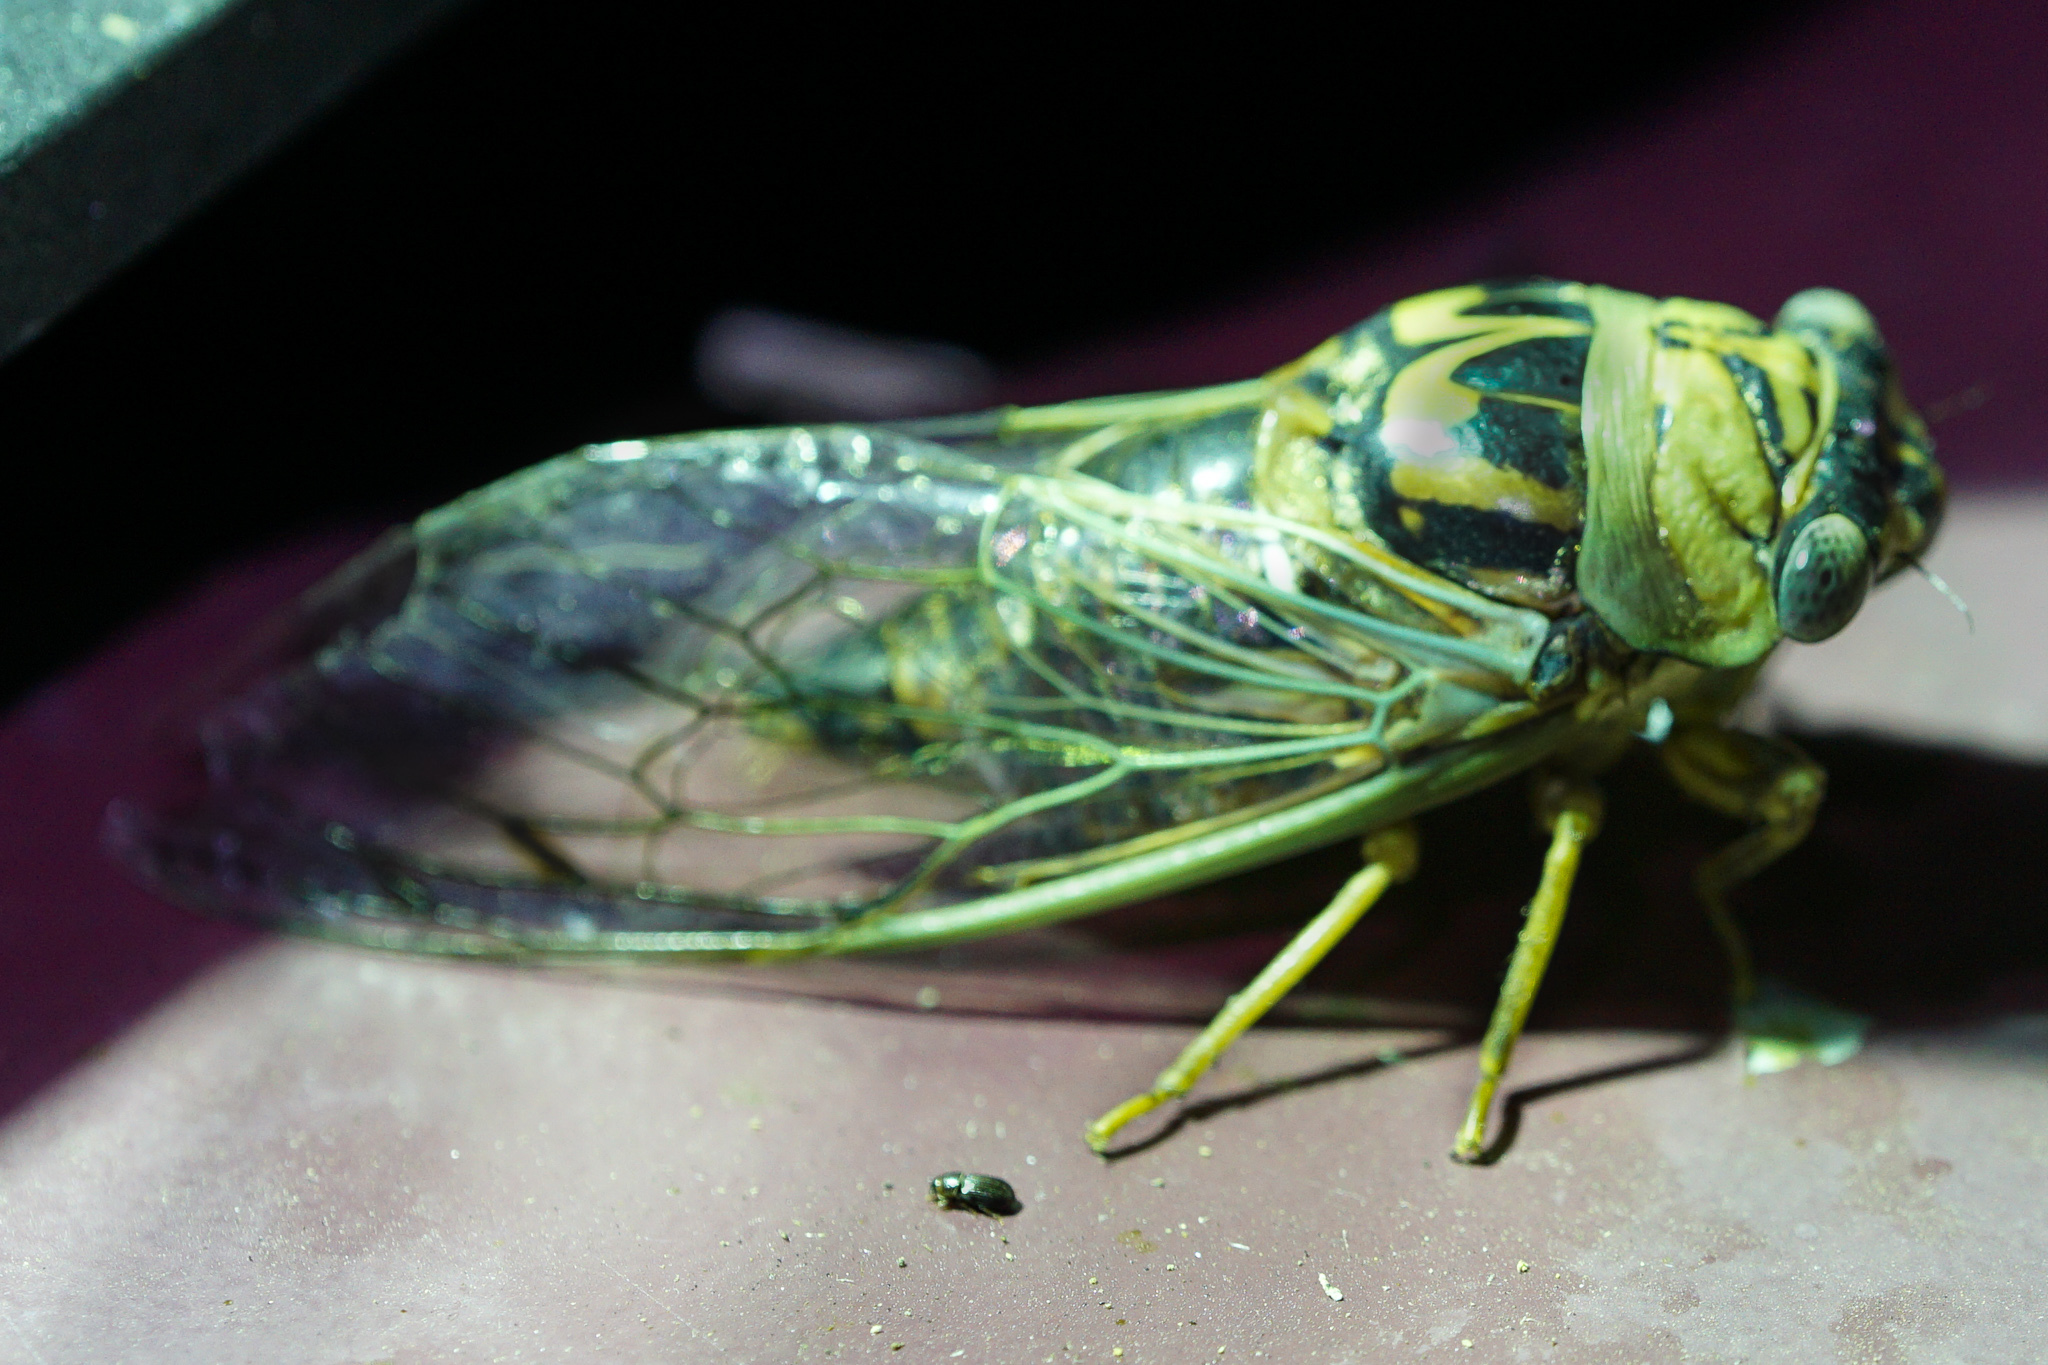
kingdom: Animalia
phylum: Arthropoda
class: Insecta
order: Hemiptera
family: Cicadidae
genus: Megatibicen
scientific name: Megatibicen resh
